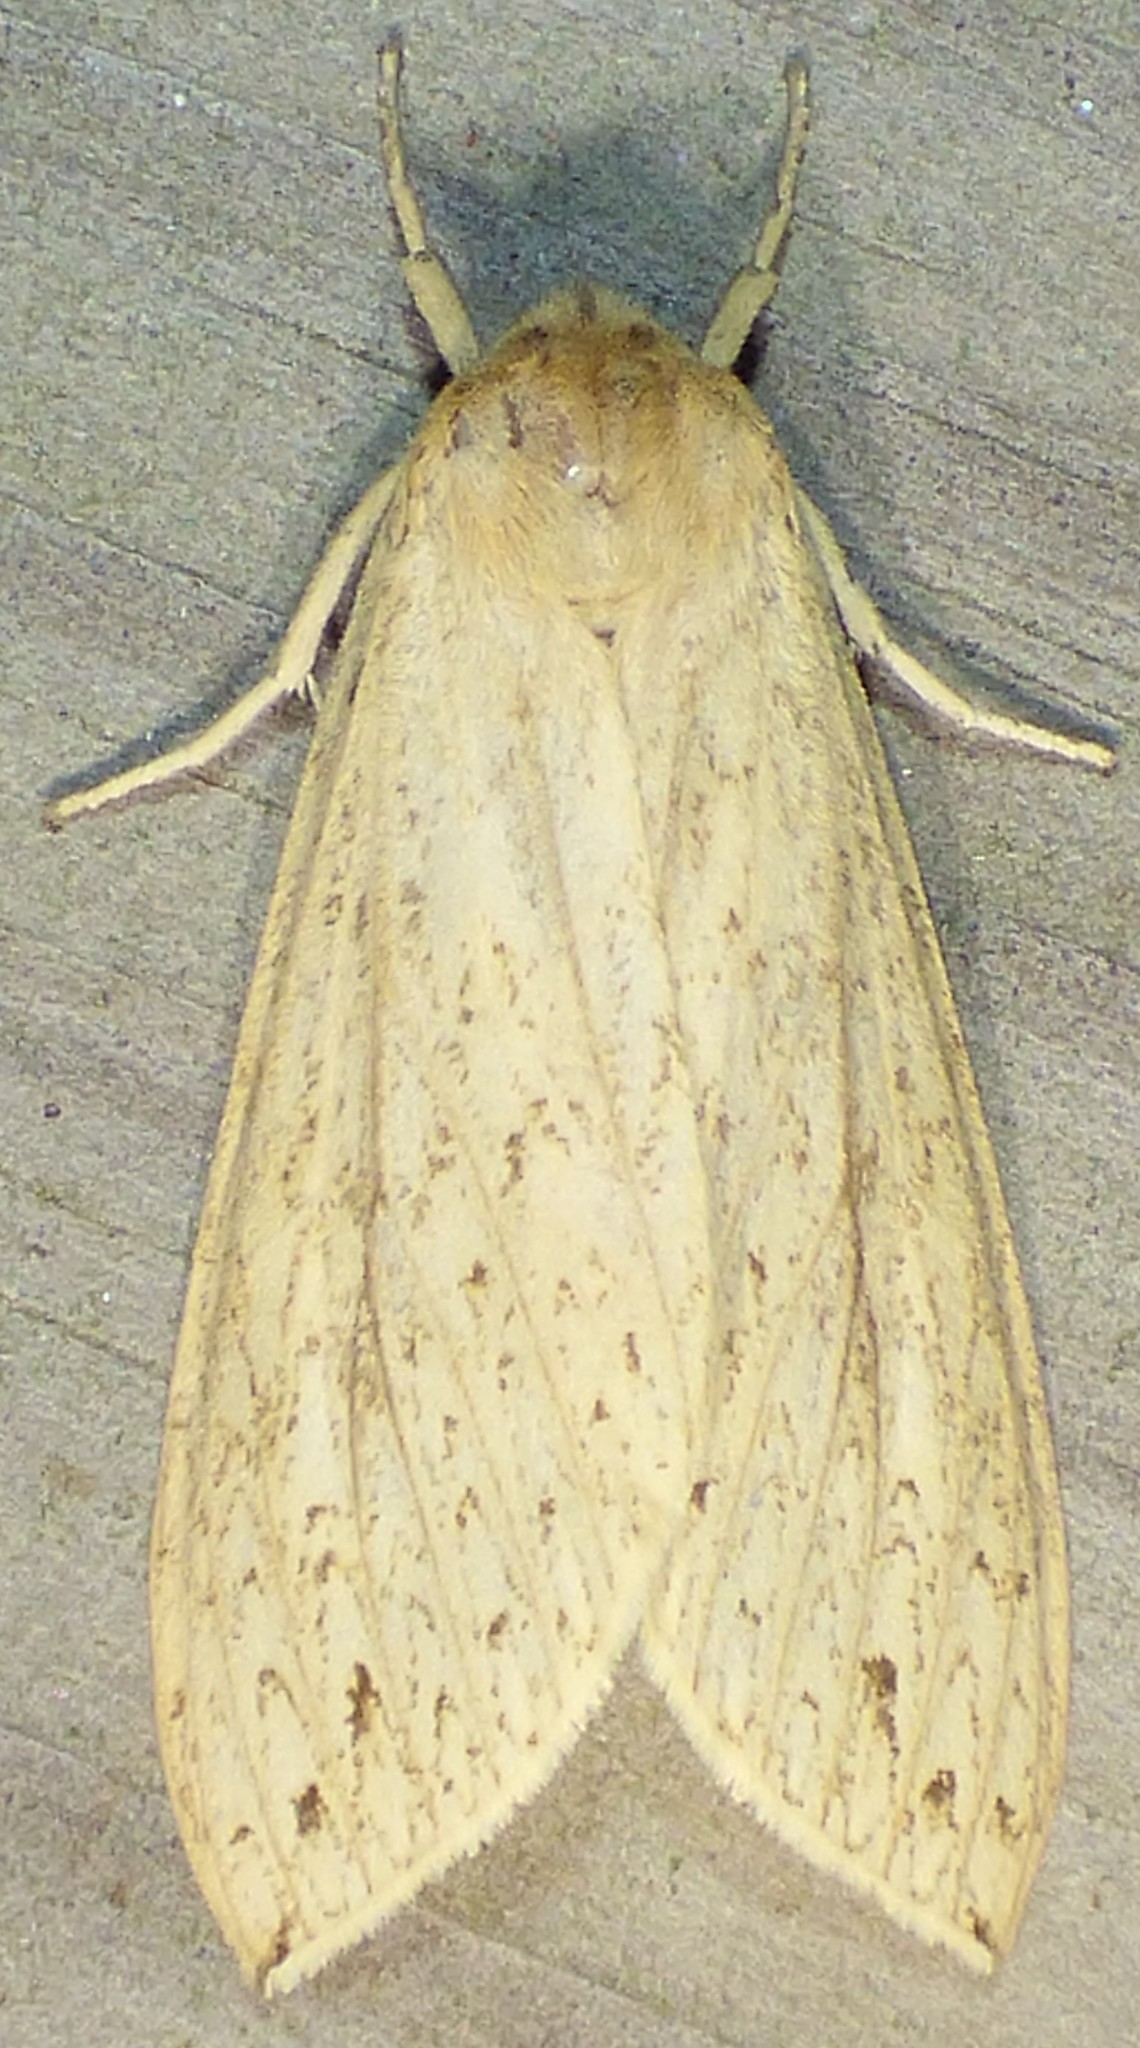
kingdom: Animalia
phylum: Arthropoda
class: Insecta
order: Lepidoptera
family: Erebidae
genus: Leucanopsis
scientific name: Leucanopsis longa
